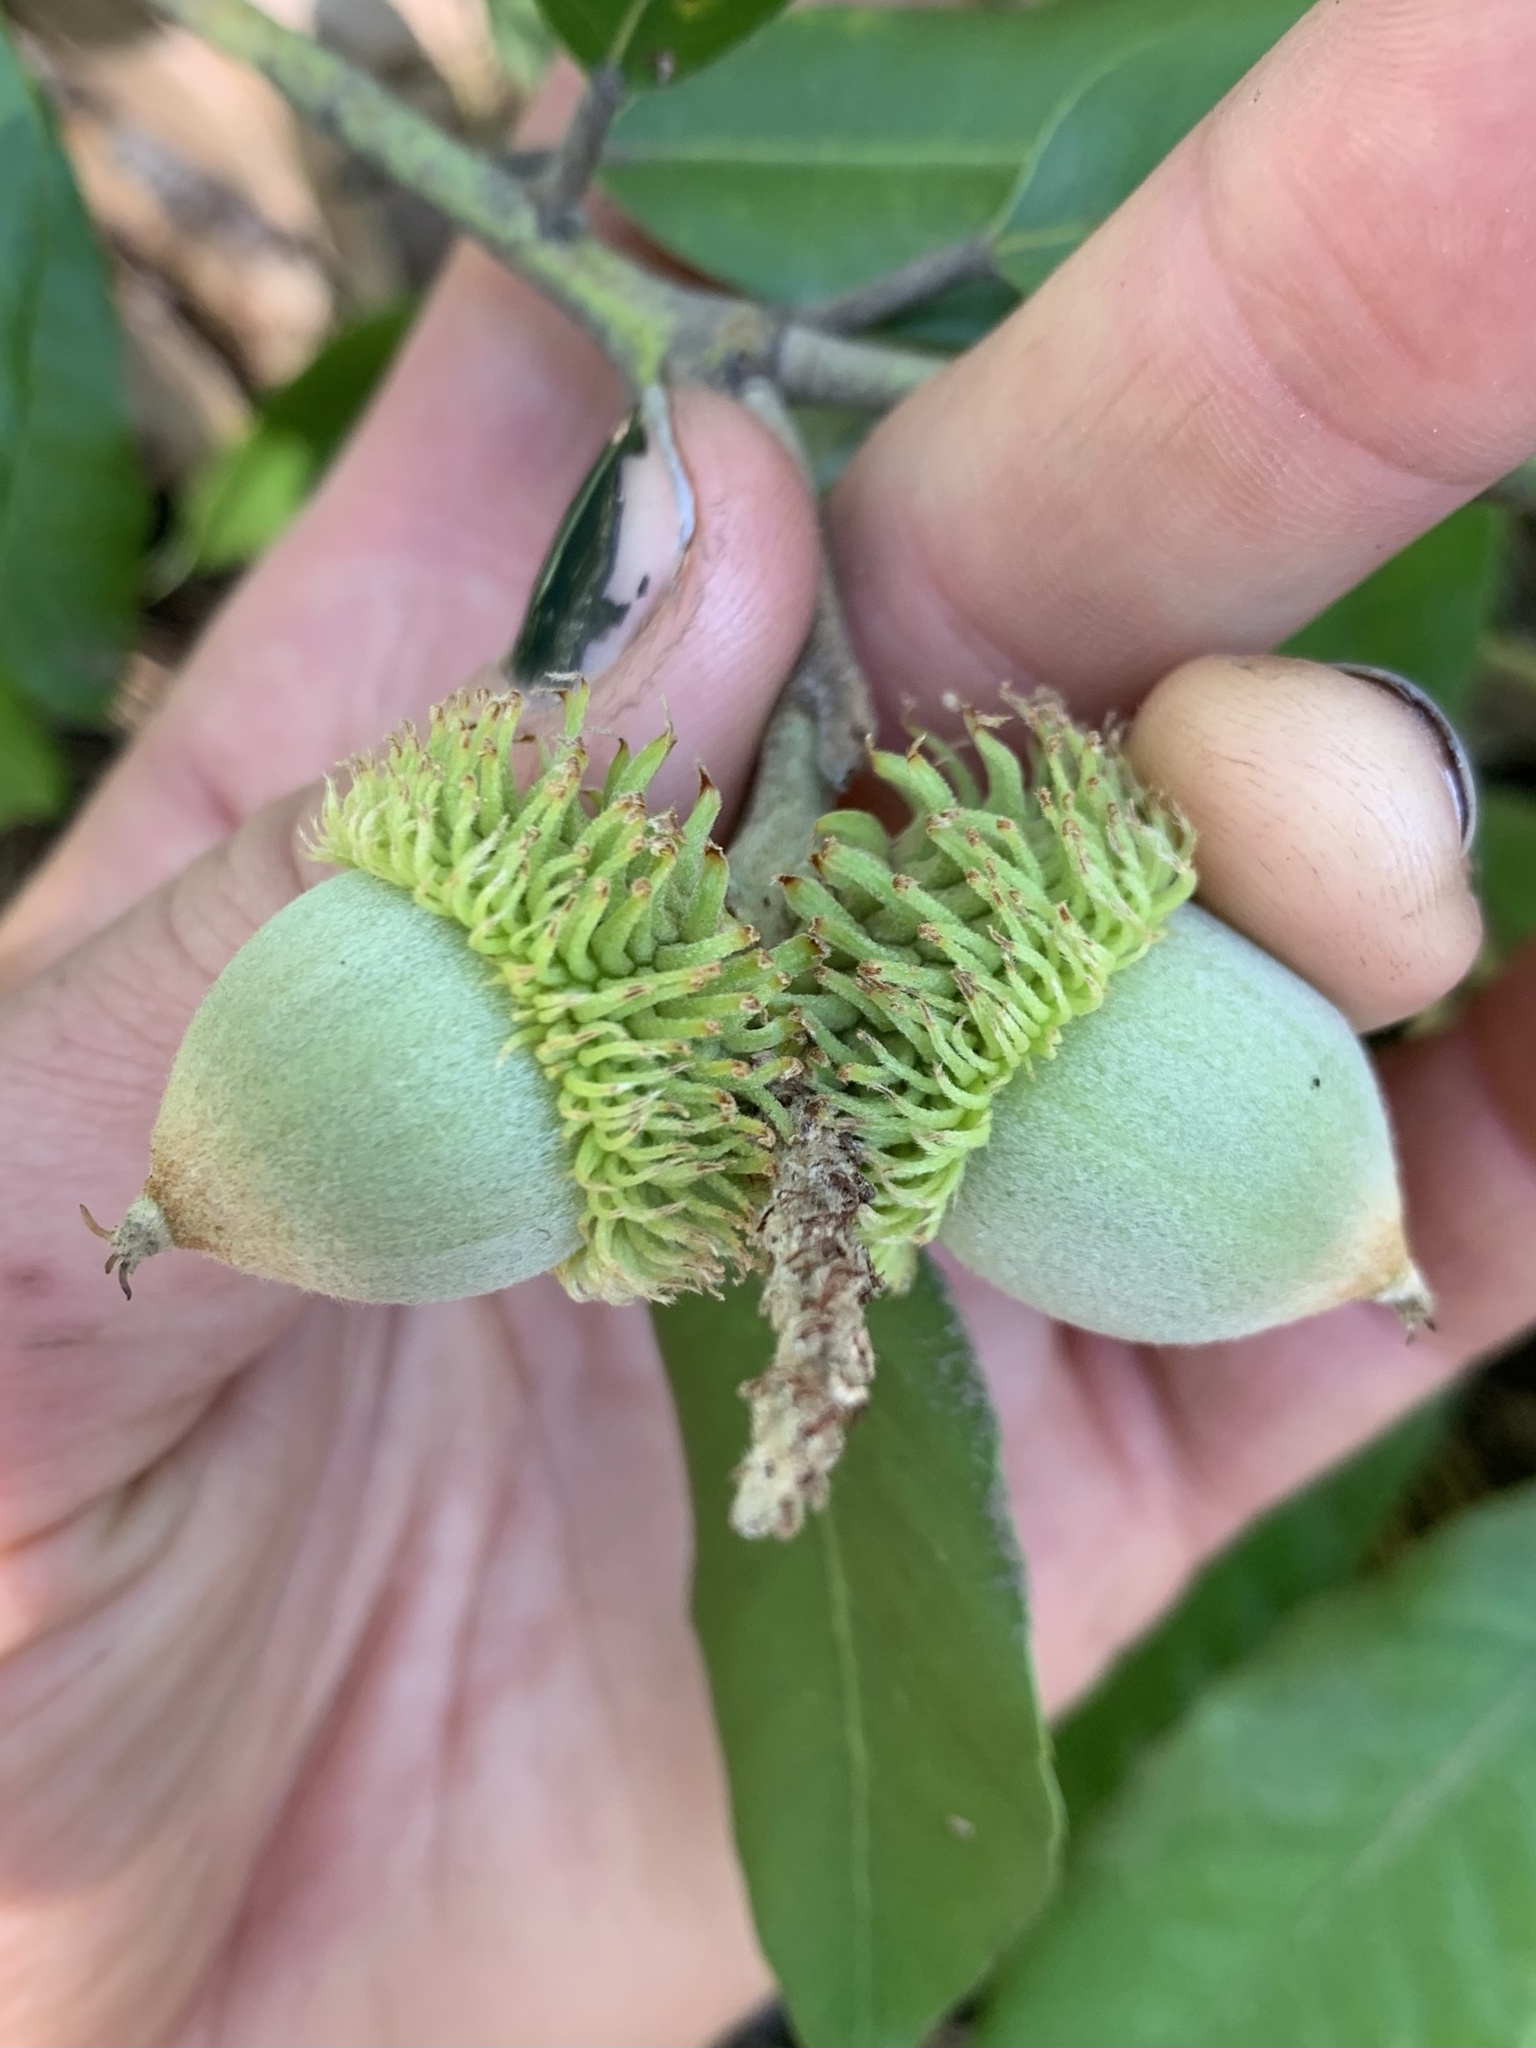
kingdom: Plantae
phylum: Tracheophyta
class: Magnoliopsida
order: Fagales
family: Fagaceae
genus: Notholithocarpus
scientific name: Notholithocarpus densiflorus
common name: Tan bark oak
